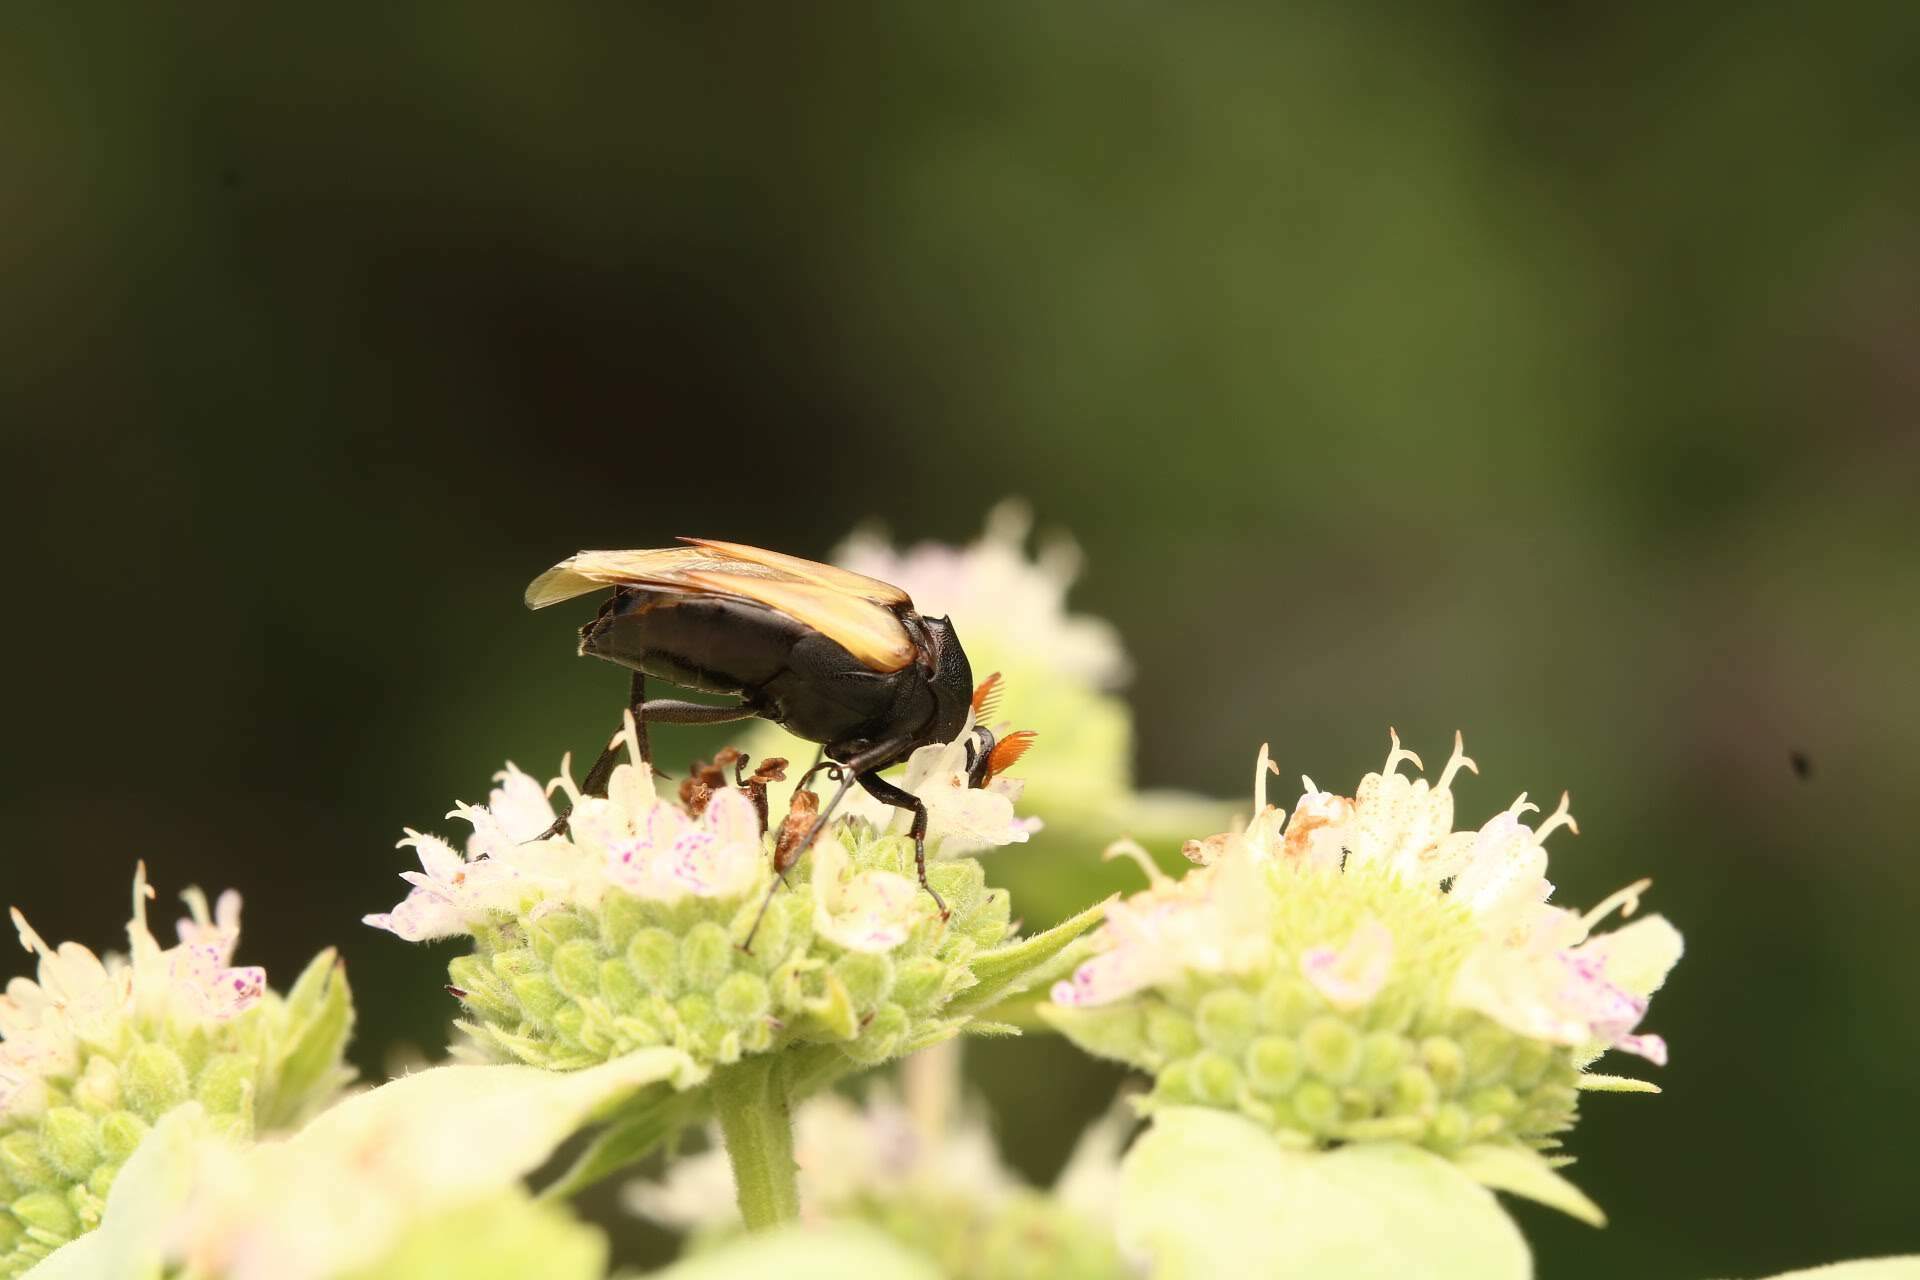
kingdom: Animalia
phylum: Arthropoda
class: Insecta
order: Coleoptera
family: Ripiphoridae
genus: Macrosiagon
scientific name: Macrosiagon flavipennis
